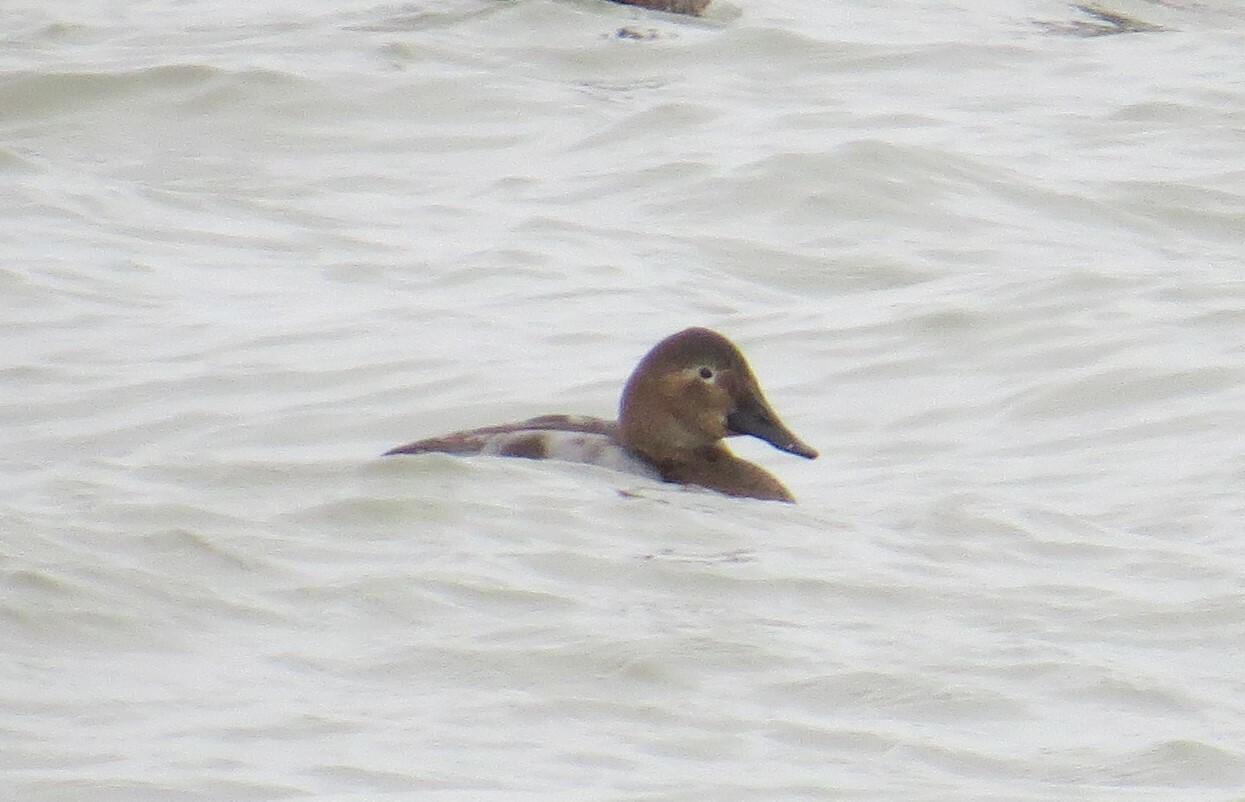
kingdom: Animalia
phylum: Chordata
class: Aves
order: Anseriformes
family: Anatidae
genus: Aythya
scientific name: Aythya valisineria
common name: Canvasback
